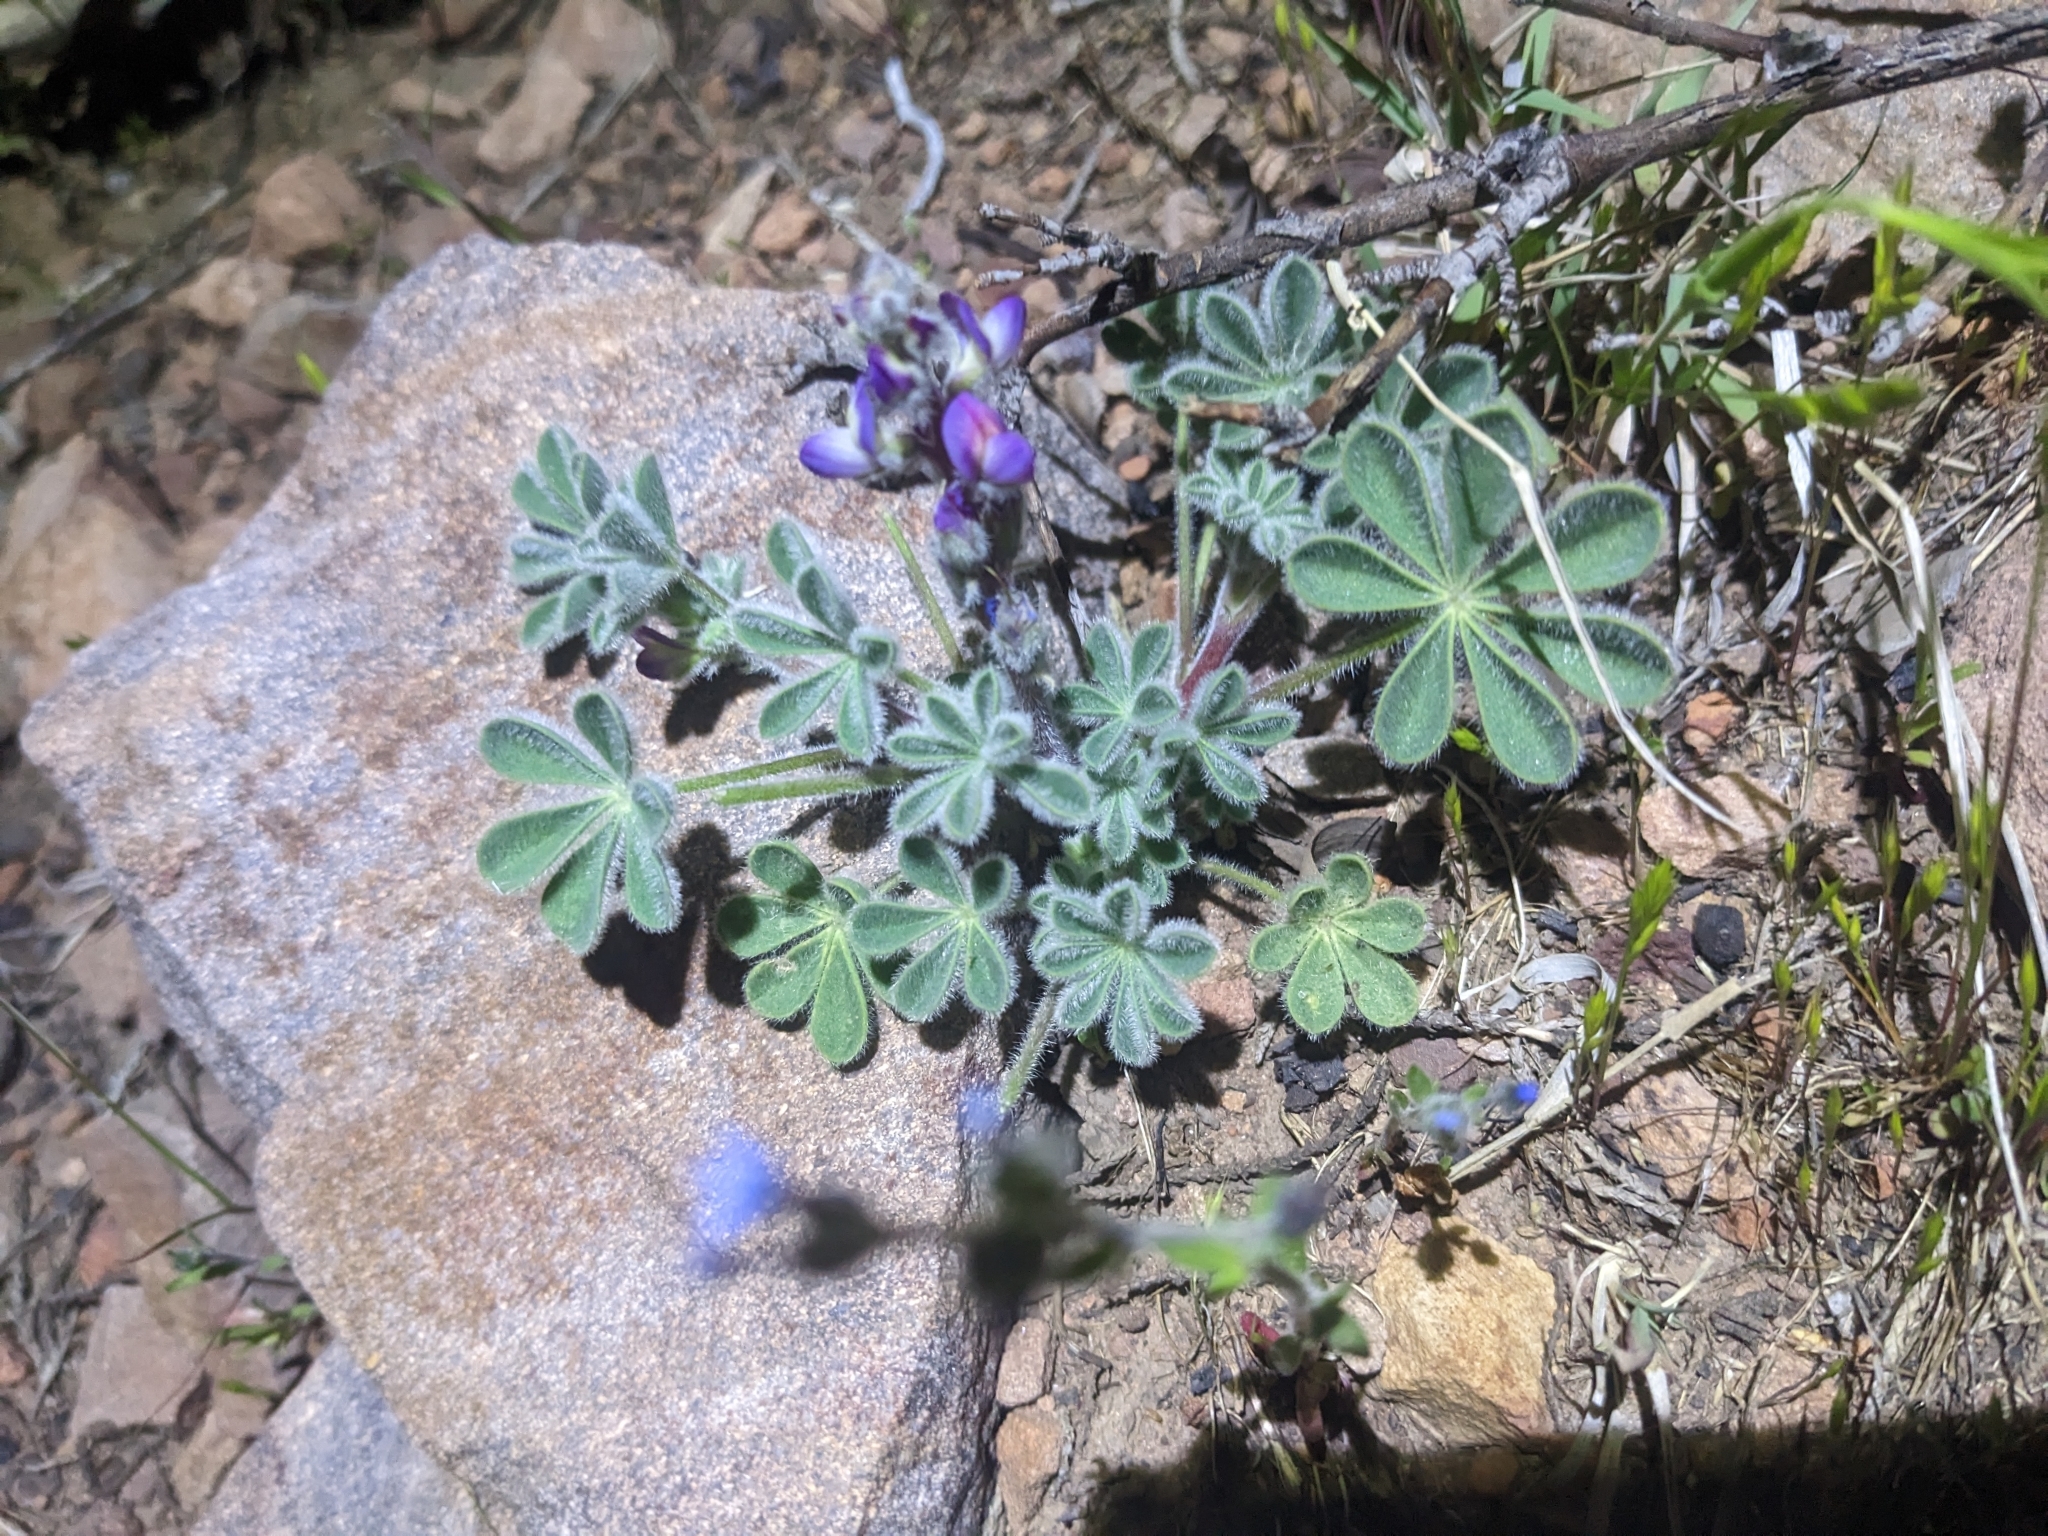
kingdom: Plantae
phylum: Tracheophyta
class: Magnoliopsida
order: Fabales
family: Fabaceae
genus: Lupinus
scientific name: Lupinus concinnus
